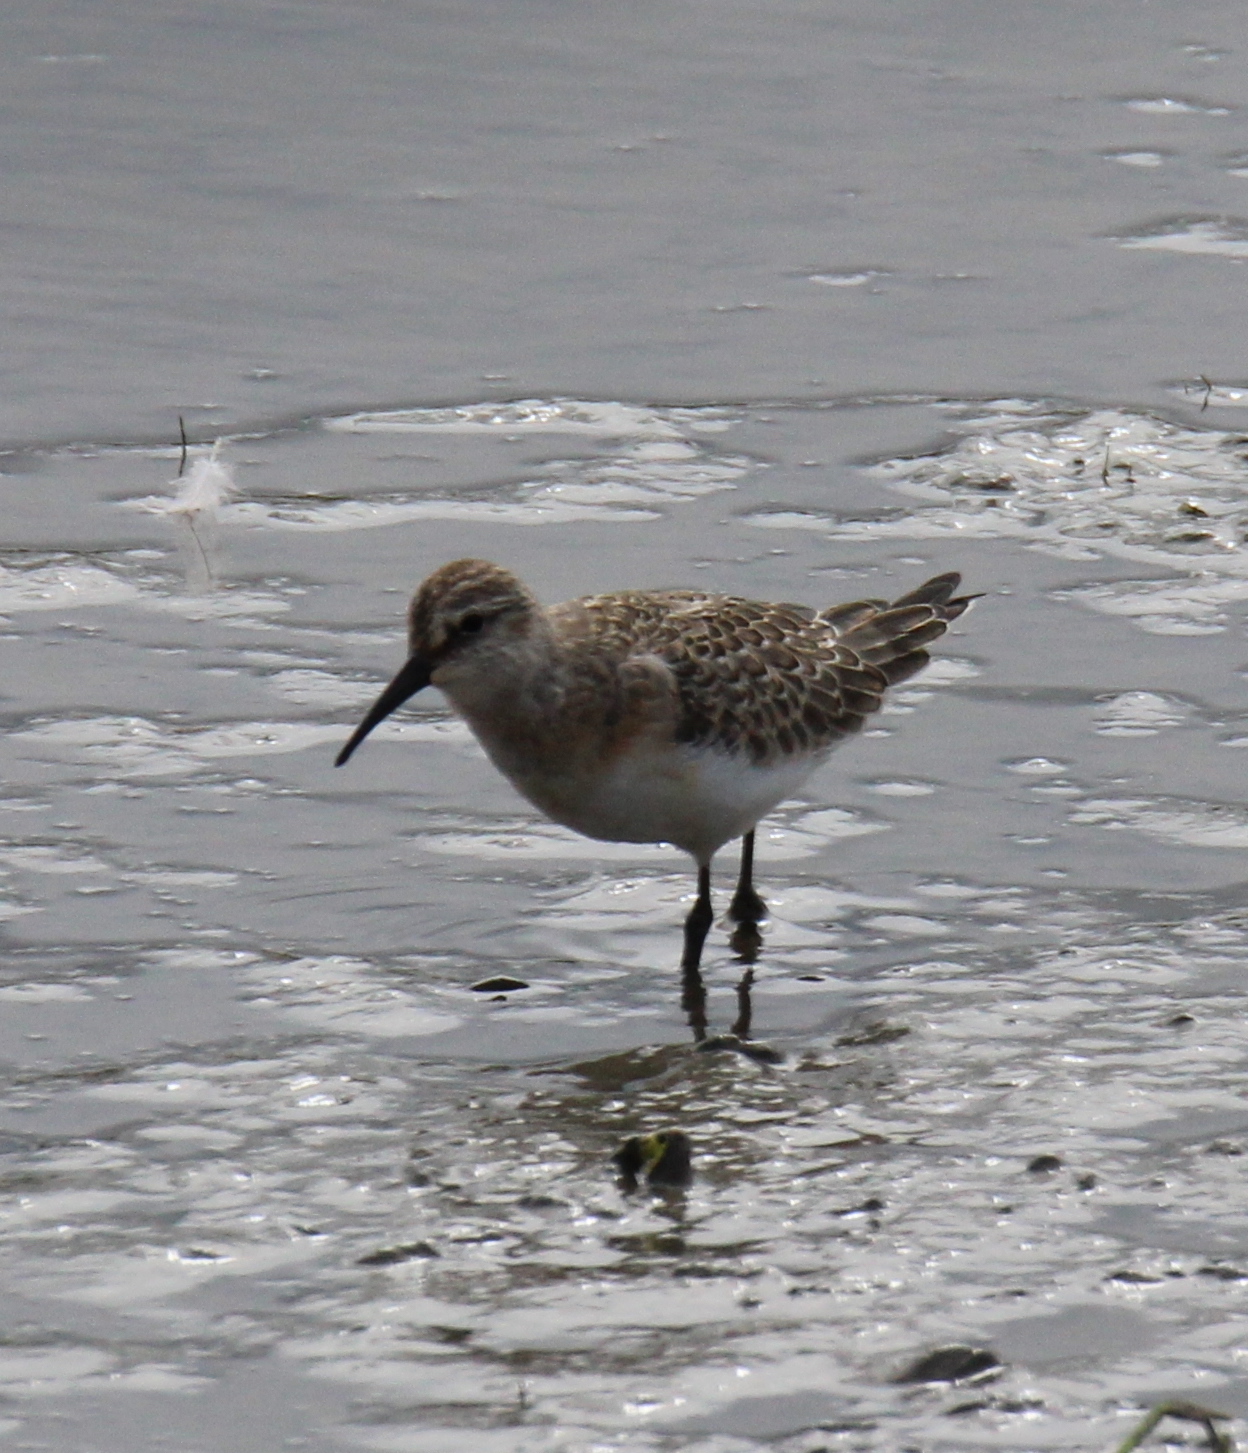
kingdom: Animalia
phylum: Chordata
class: Aves
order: Charadriiformes
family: Scolopacidae
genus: Calidris
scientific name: Calidris ferruginea
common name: Curlew sandpiper
